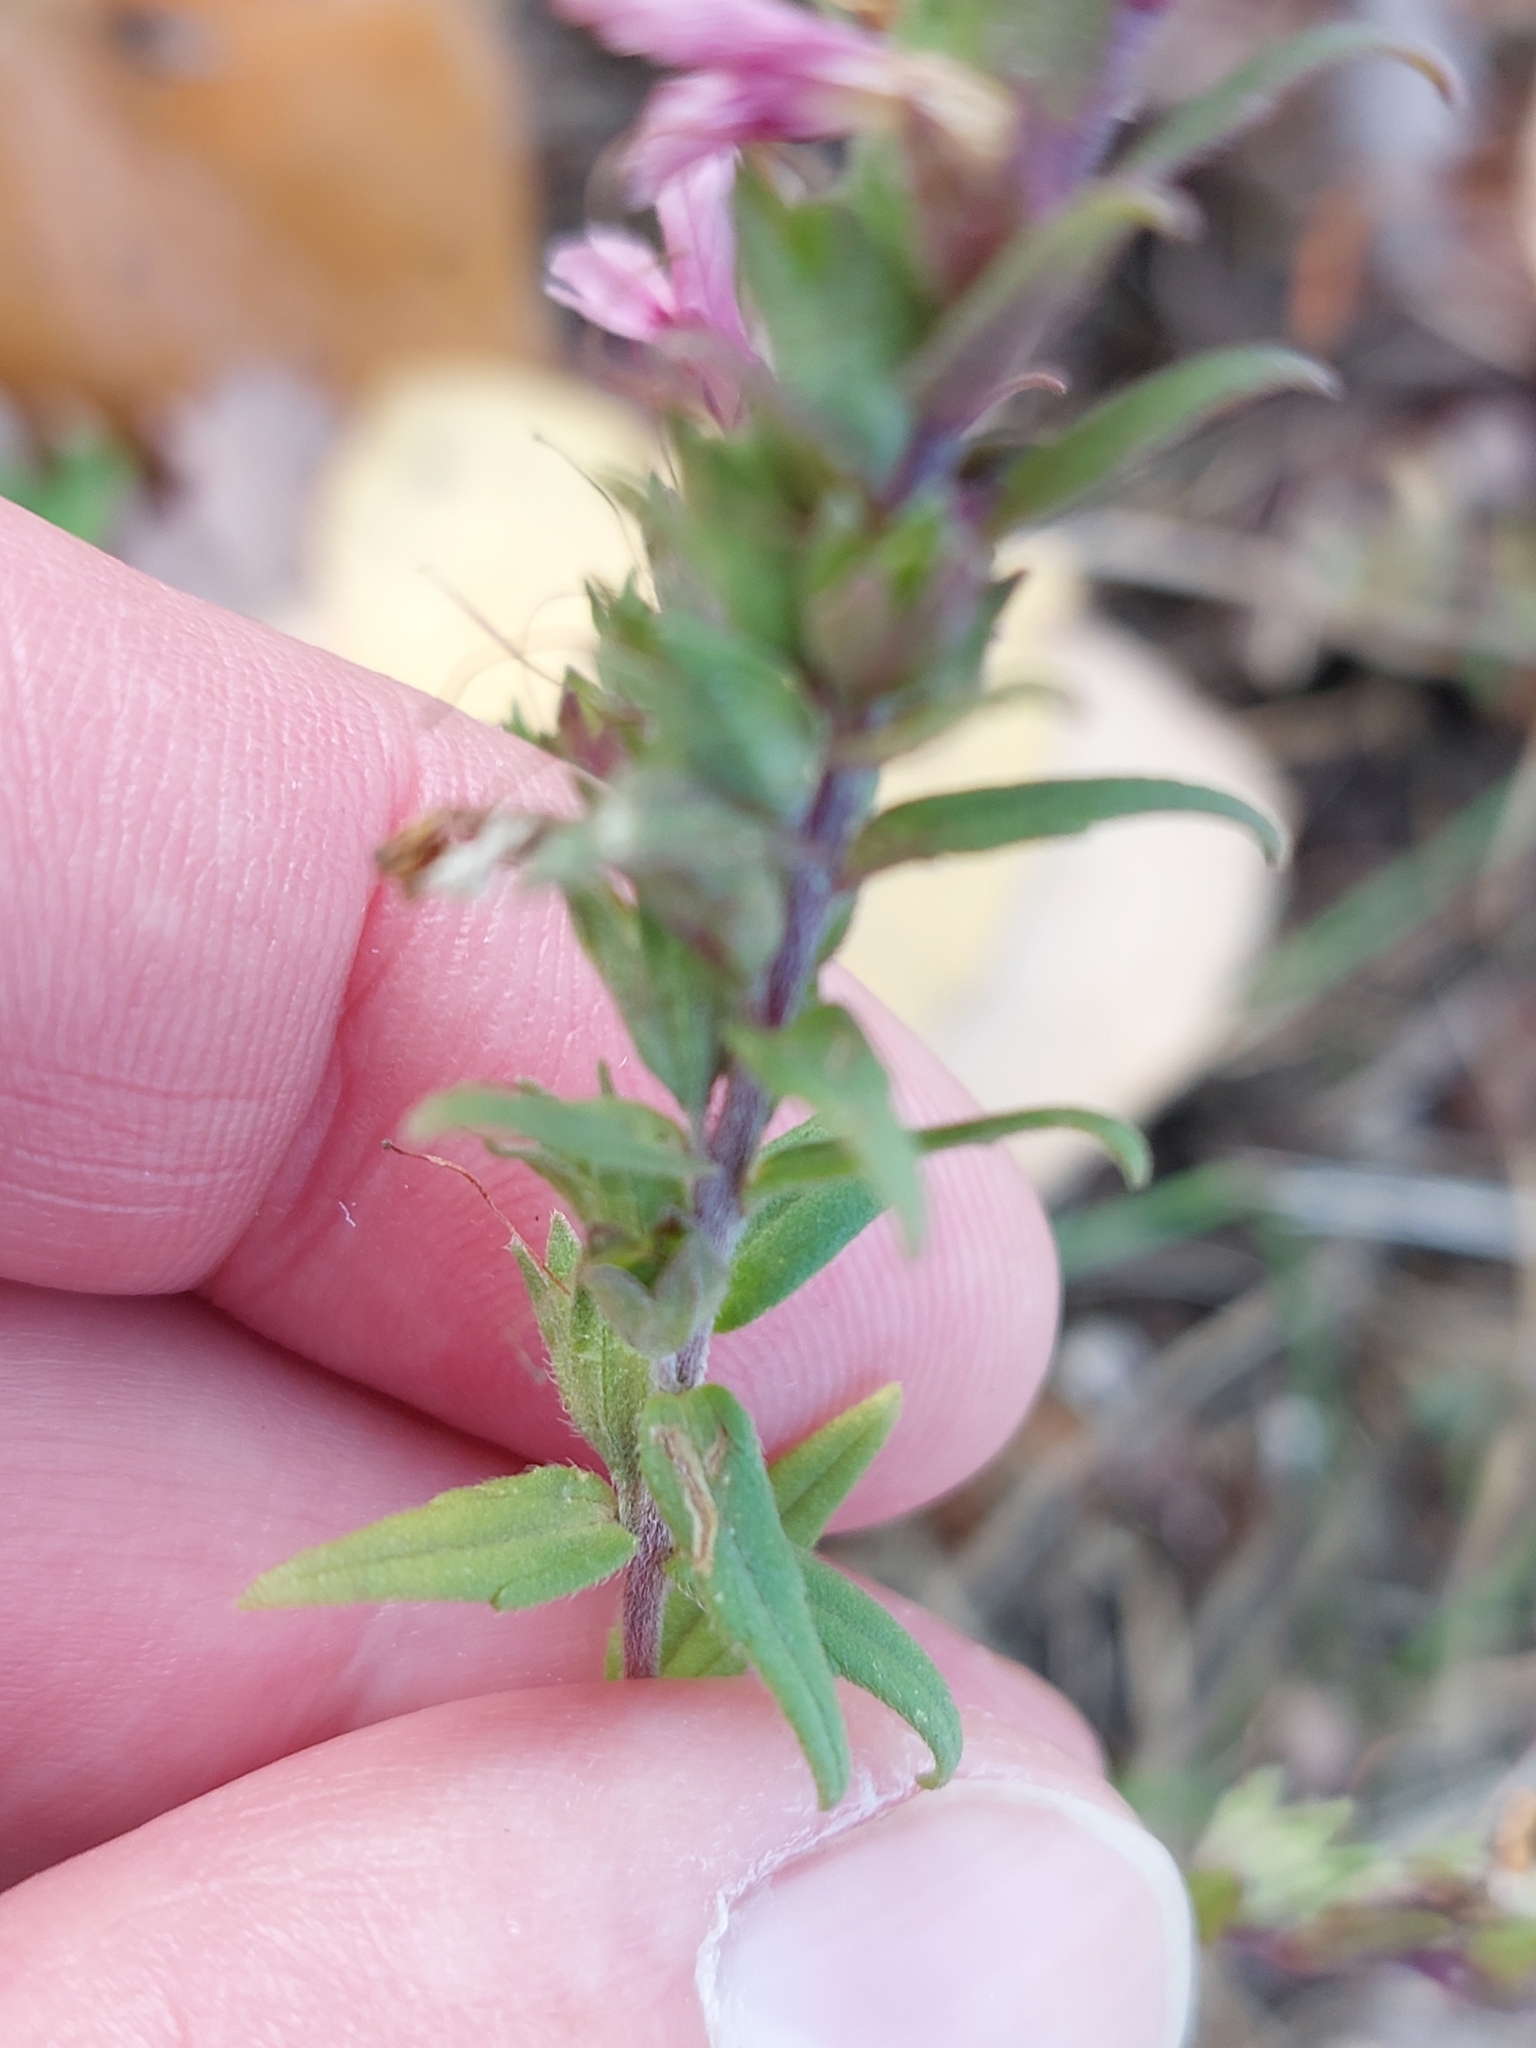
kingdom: Plantae
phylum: Tracheophyta
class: Magnoliopsida
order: Lamiales
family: Orobanchaceae
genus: Odontites
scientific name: Odontites vulgaris
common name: Broomrape
